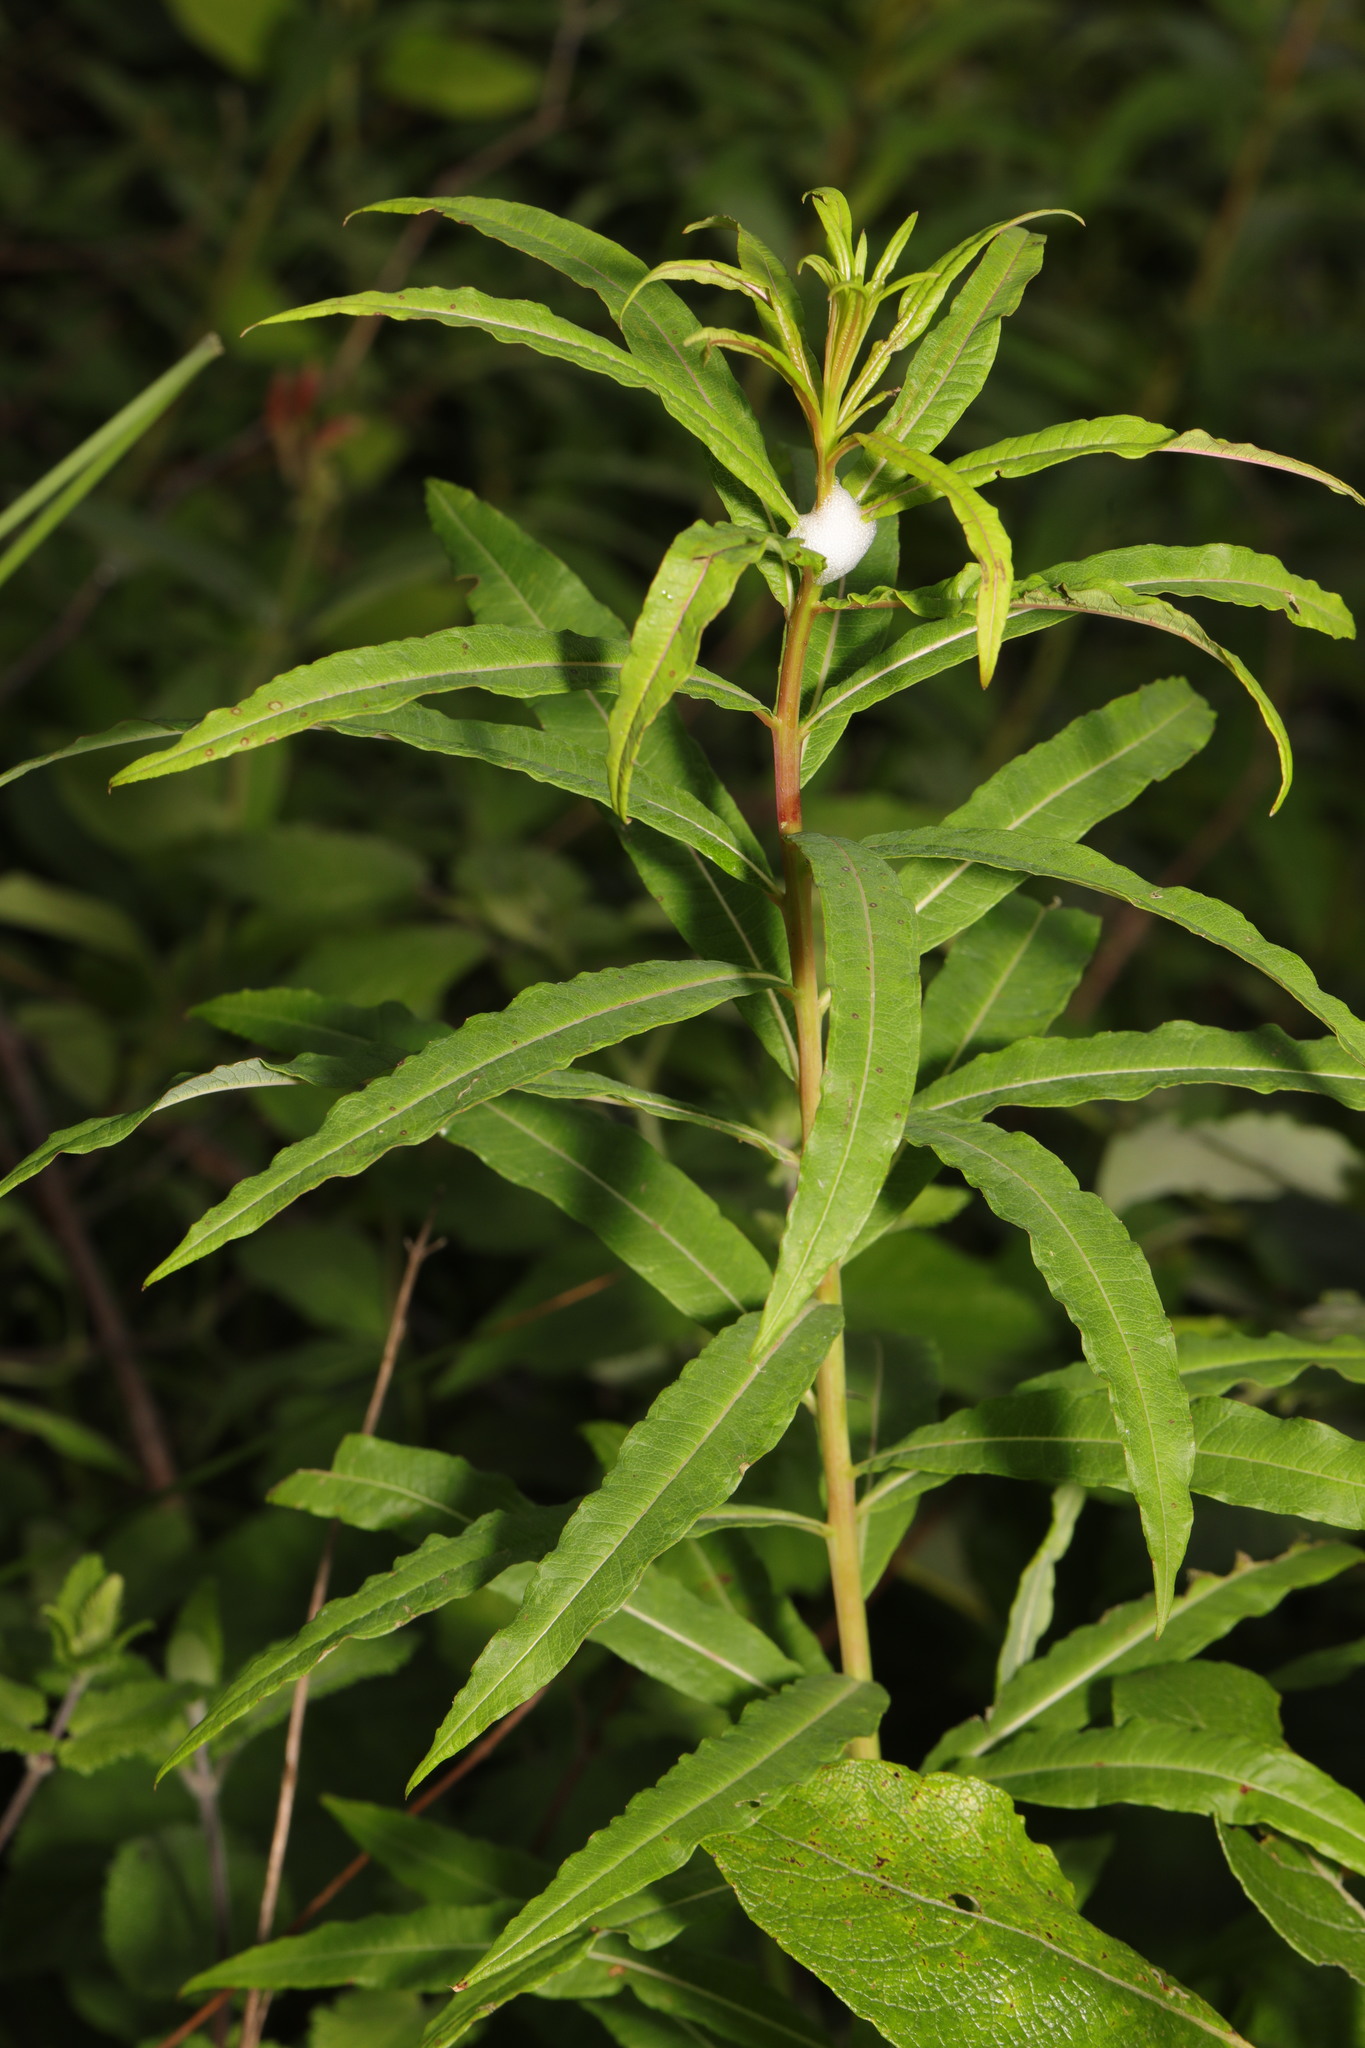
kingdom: Plantae
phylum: Tracheophyta
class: Magnoliopsida
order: Myrtales
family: Onagraceae
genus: Chamaenerion
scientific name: Chamaenerion angustifolium
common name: Fireweed
